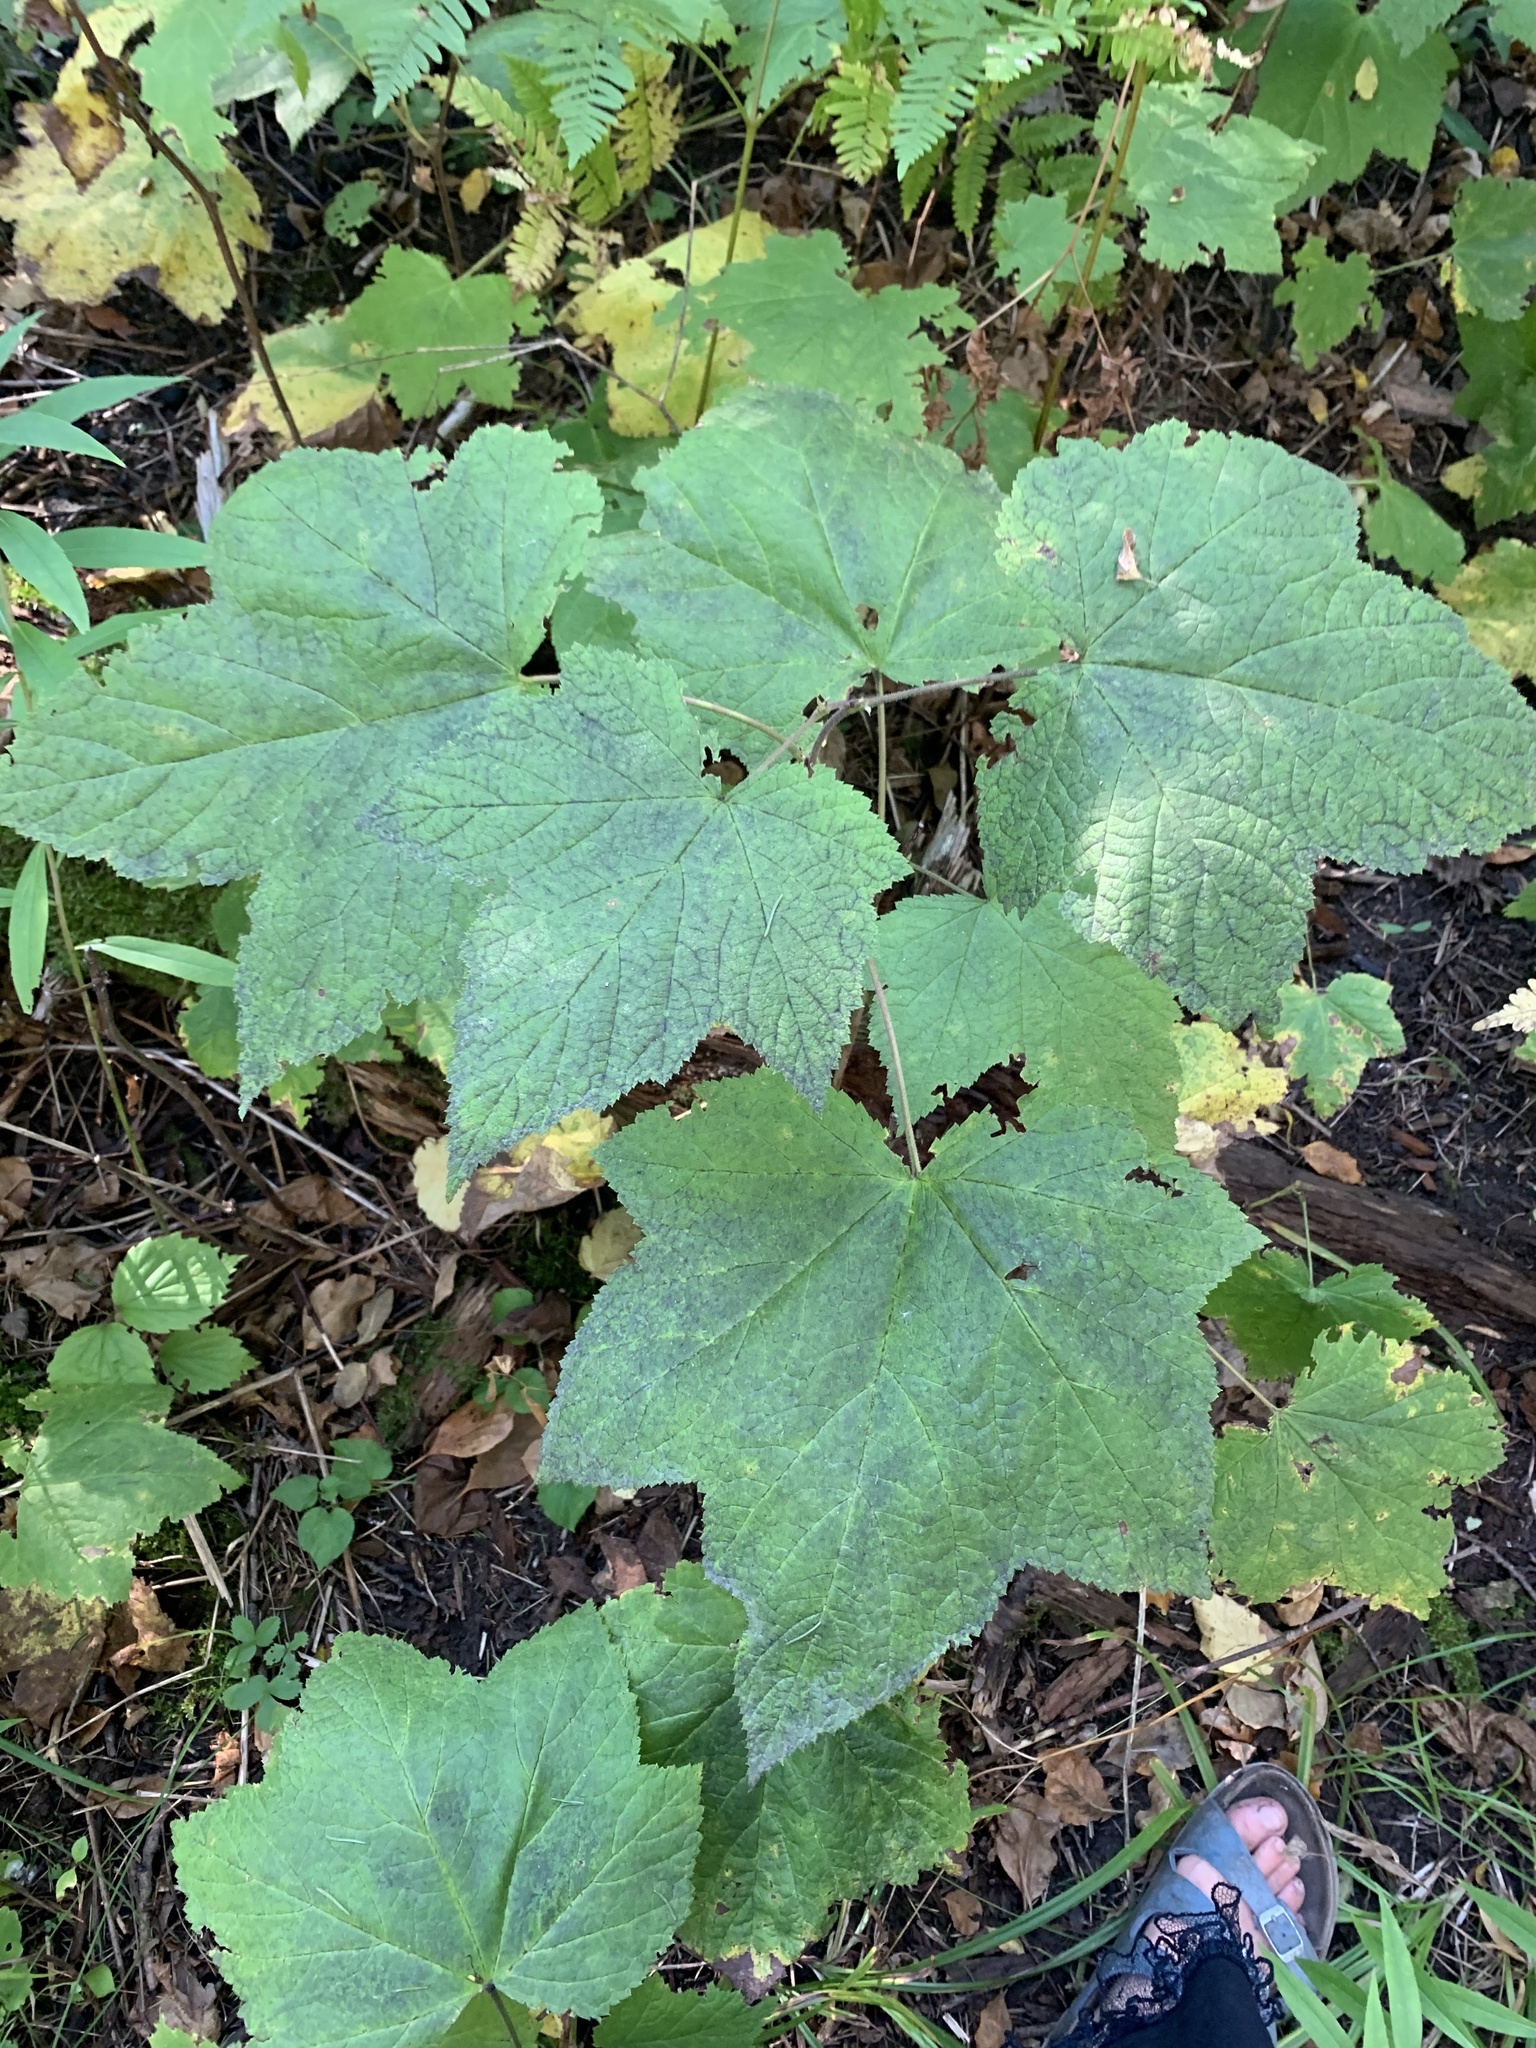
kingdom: Plantae
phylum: Tracheophyta
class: Magnoliopsida
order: Rosales
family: Rosaceae
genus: Rubus
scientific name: Rubus parviflorus
